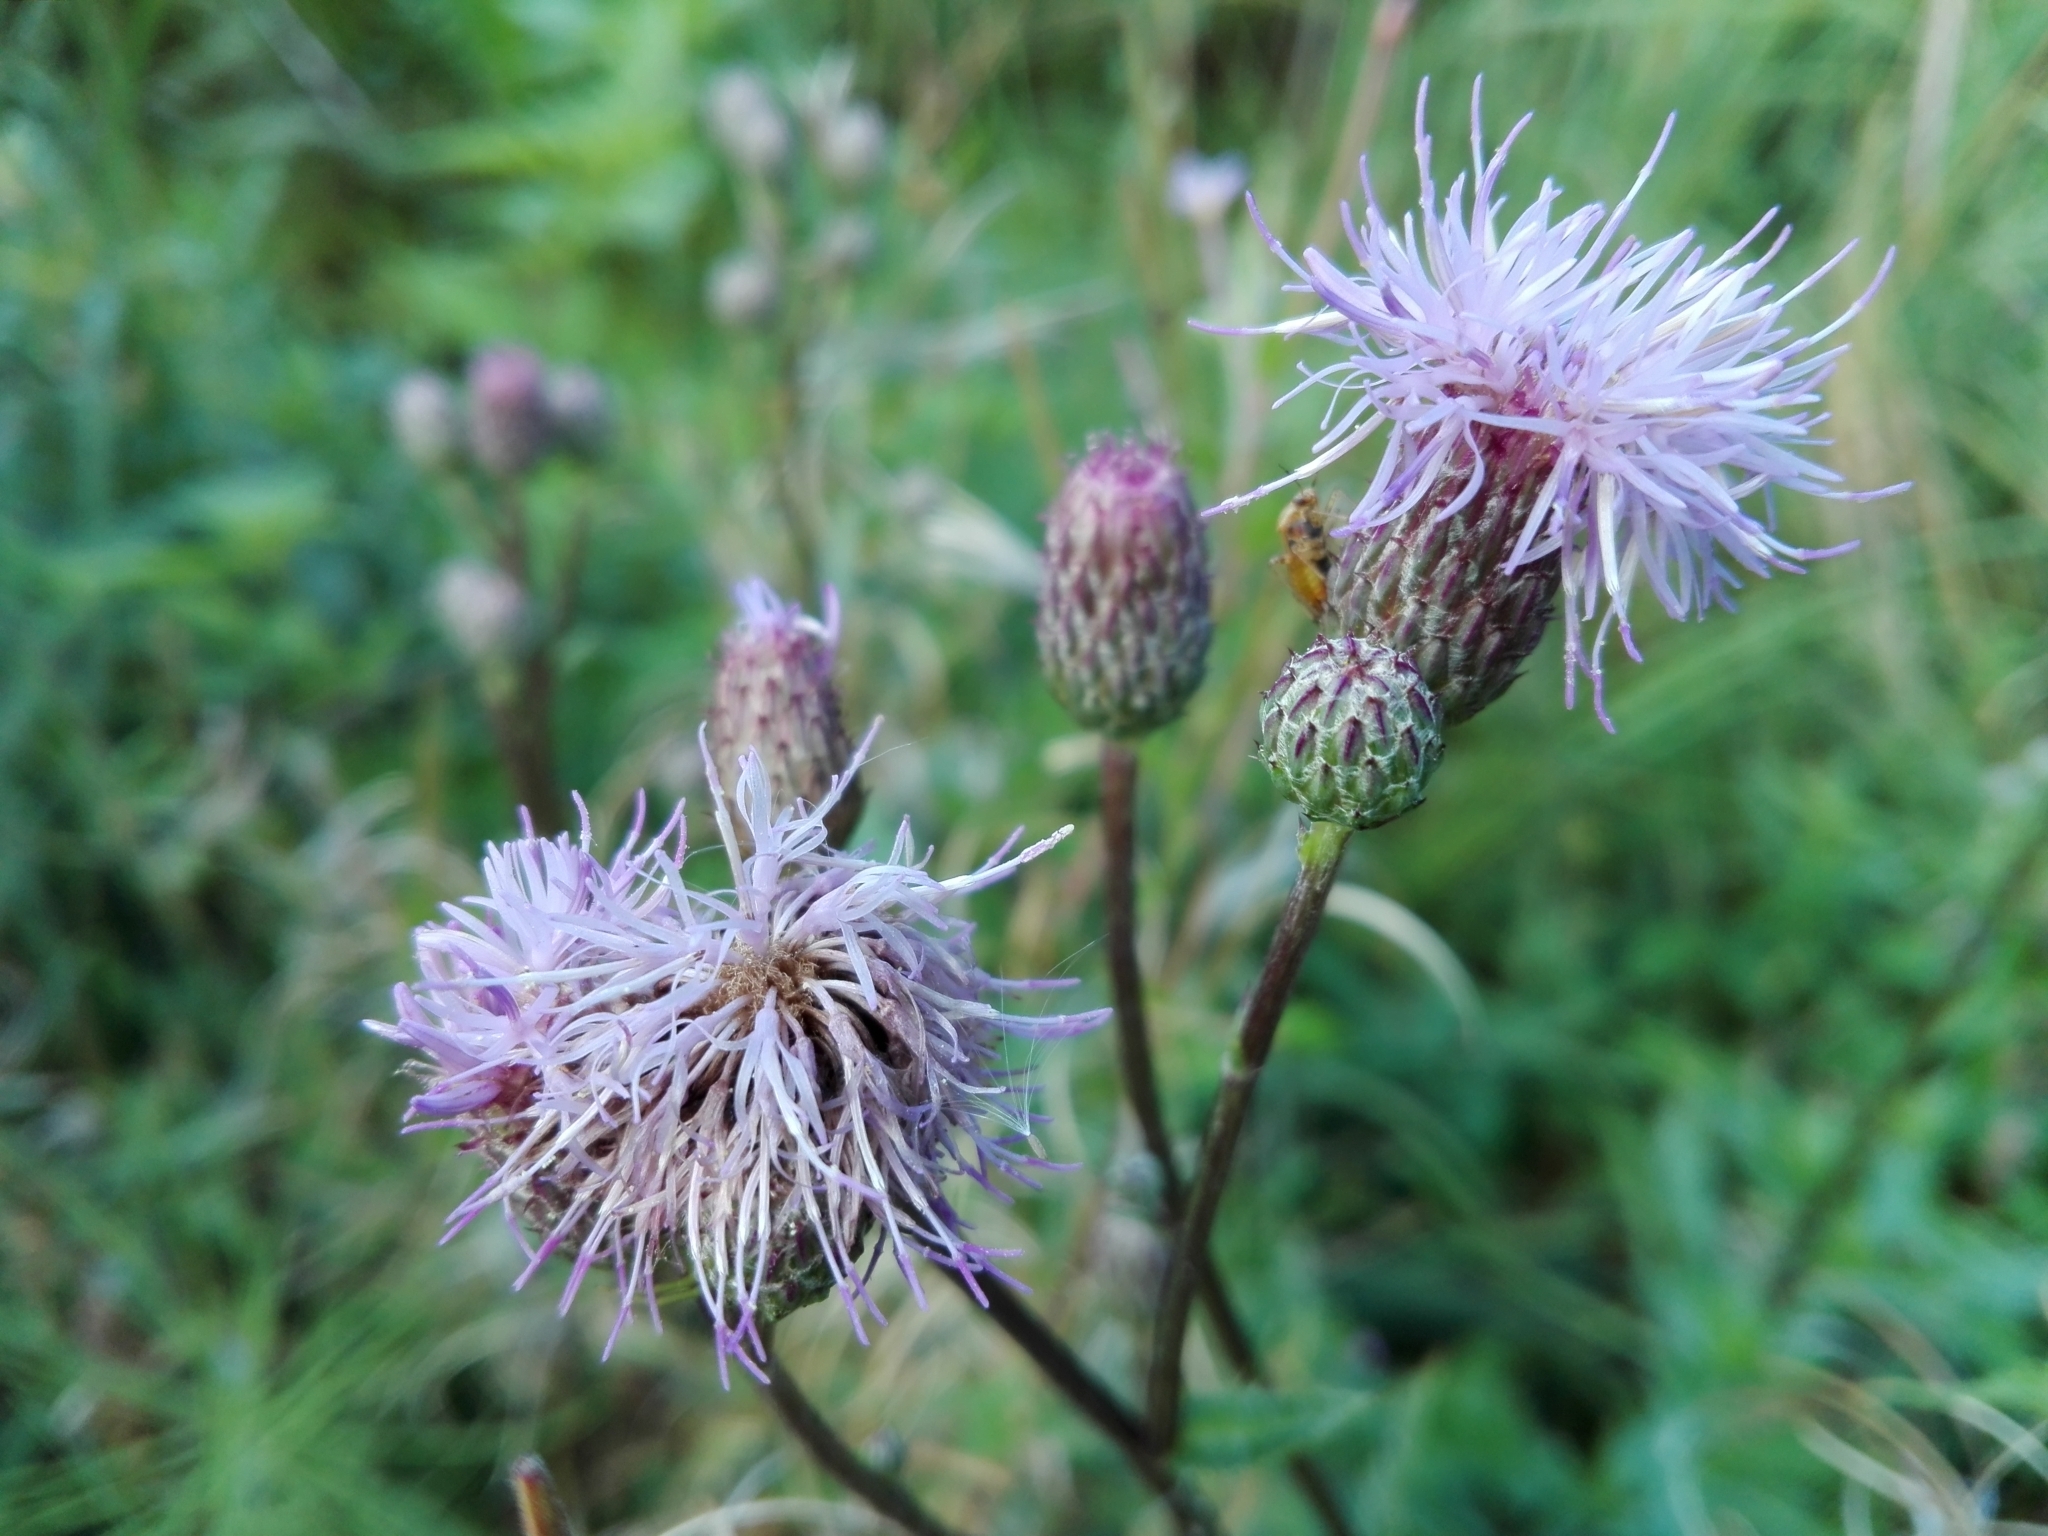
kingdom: Plantae
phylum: Tracheophyta
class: Magnoliopsida
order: Asterales
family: Asteraceae
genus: Cirsium
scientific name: Cirsium arvense
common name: Creeping thistle
